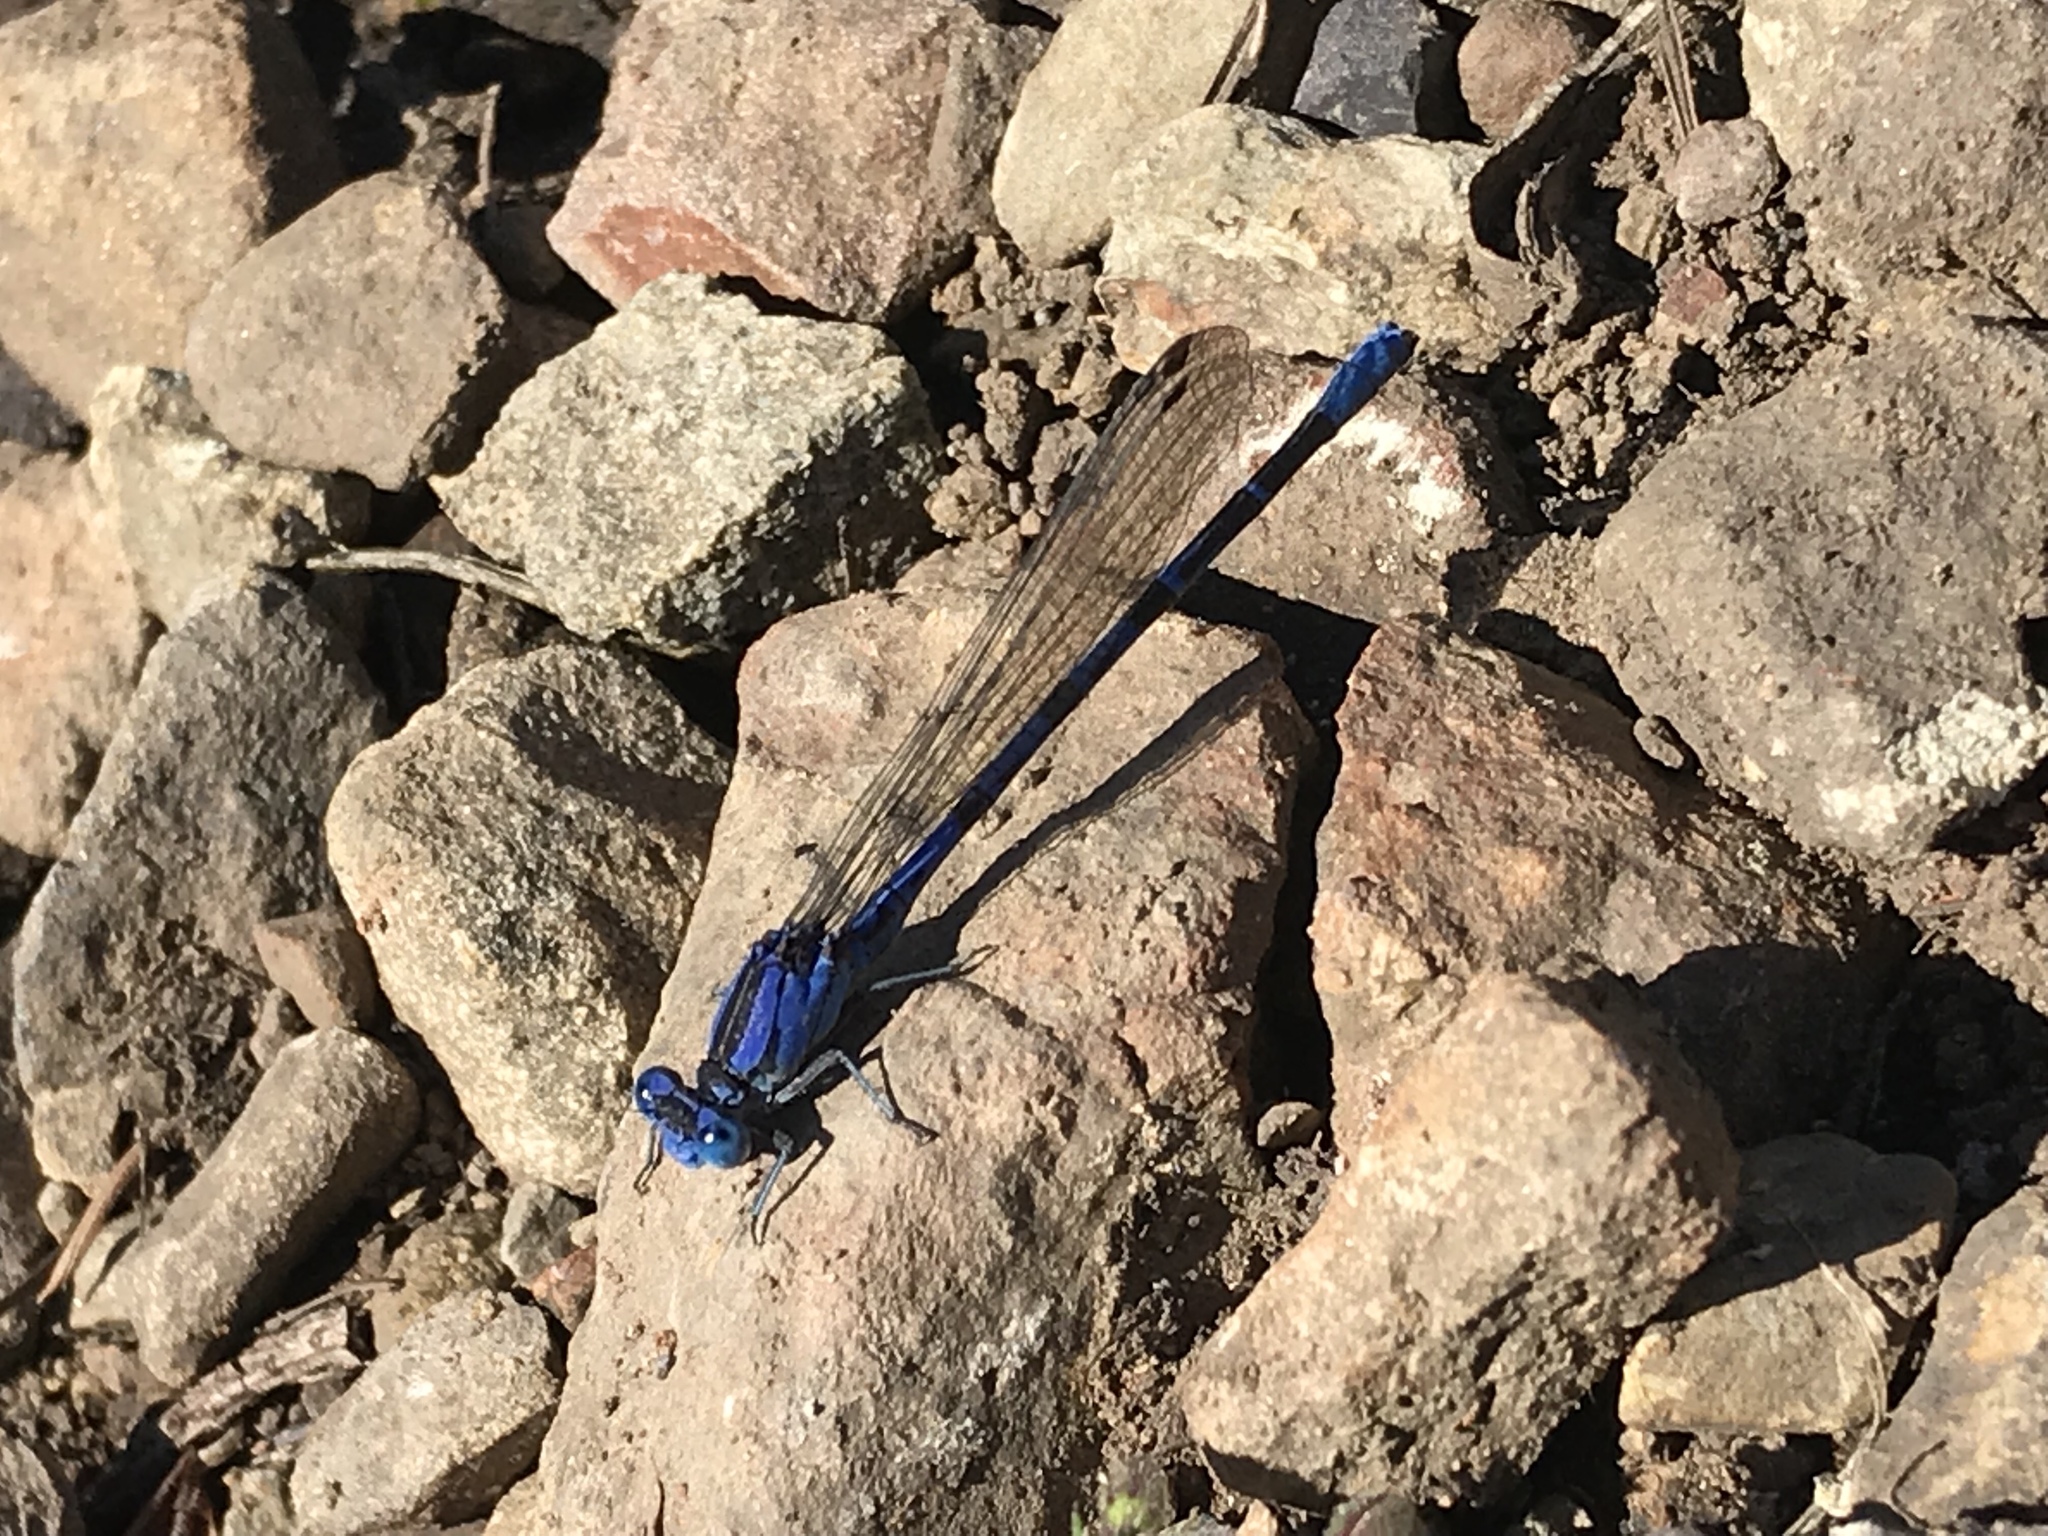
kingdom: Animalia
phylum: Arthropoda
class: Insecta
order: Odonata
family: Coenagrionidae
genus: Argia
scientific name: Argia vivida
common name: Vivid dancer
